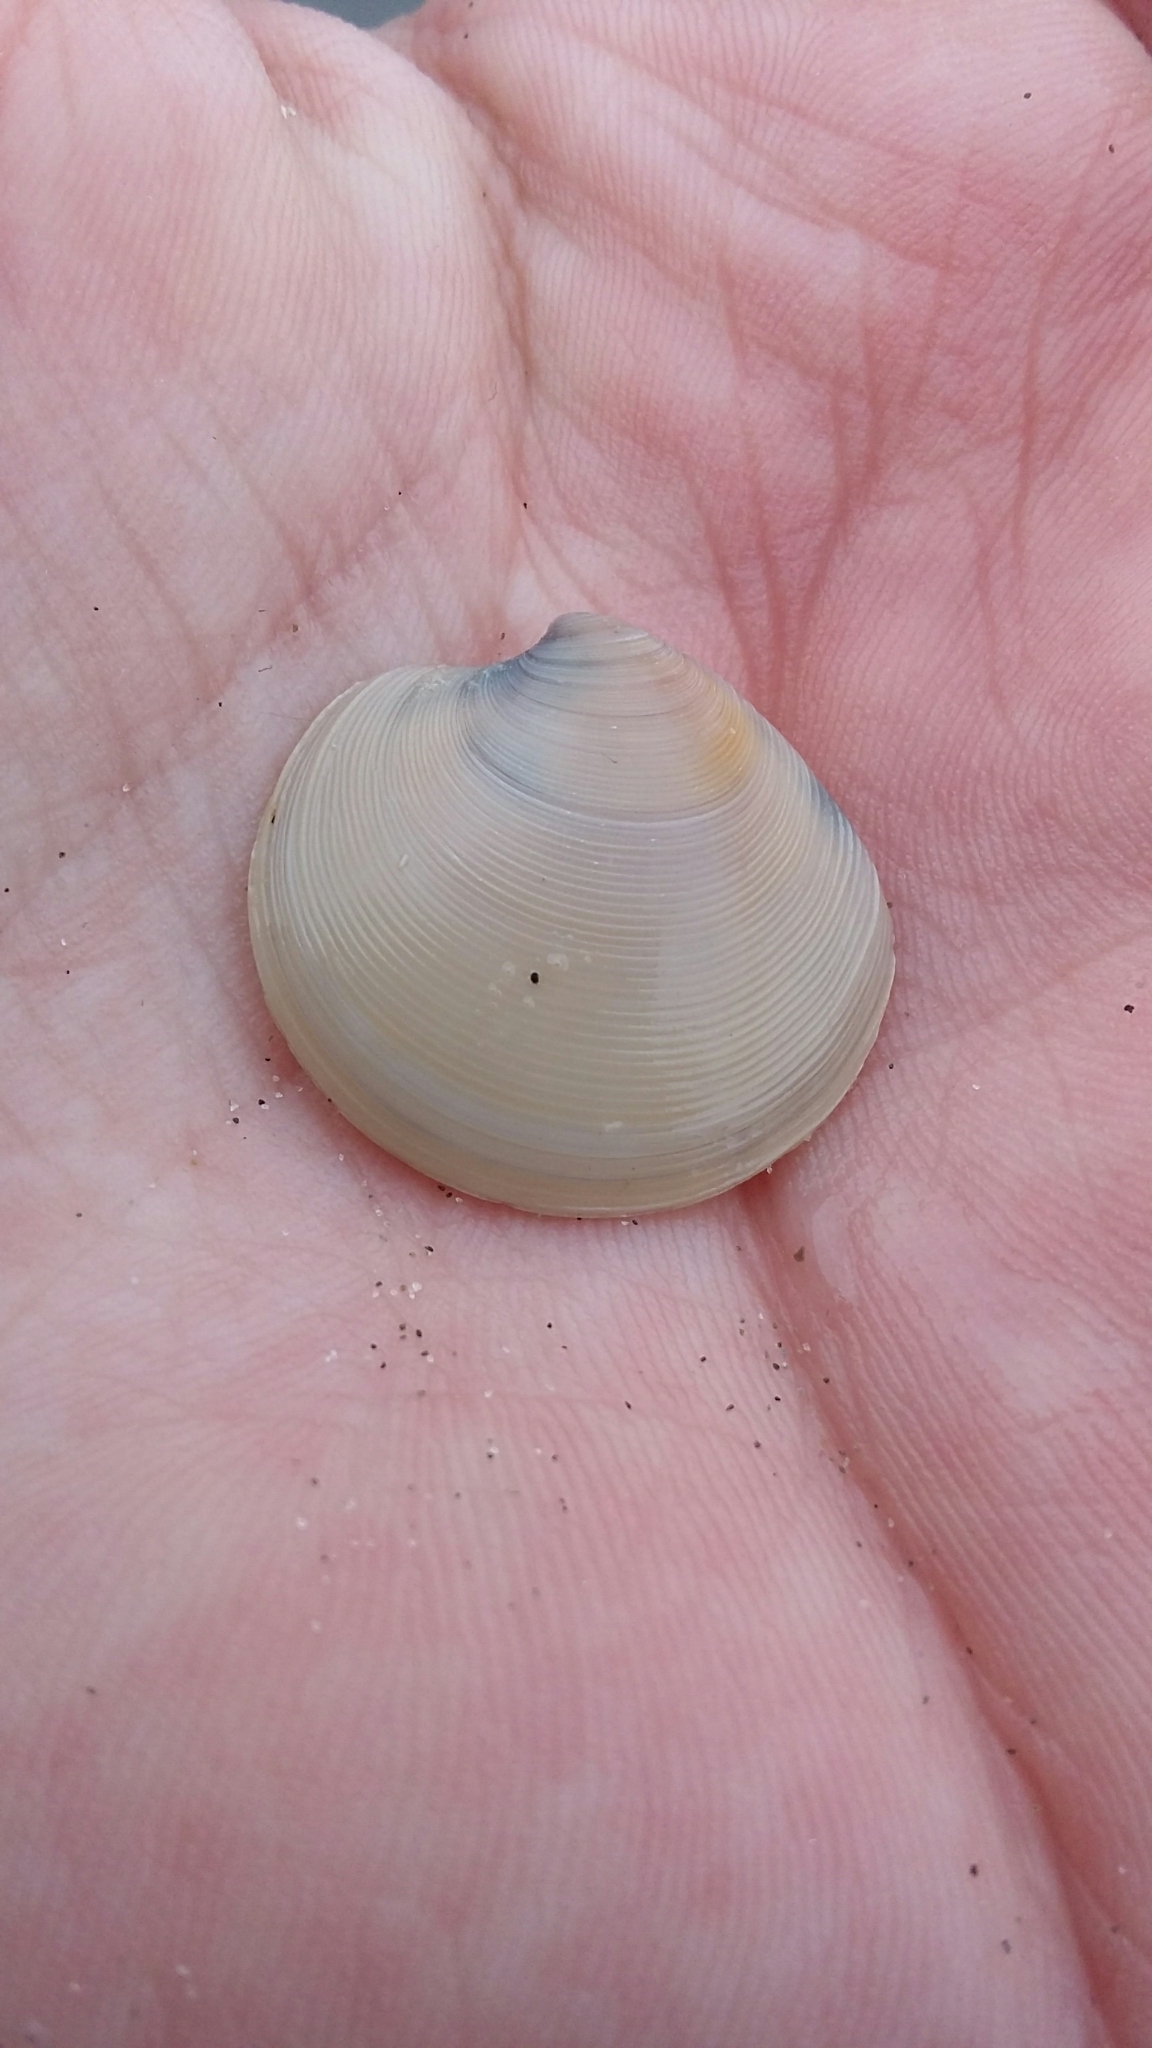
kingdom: Animalia
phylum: Mollusca
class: Bivalvia
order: Venerida
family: Veneridae
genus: Dosinia
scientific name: Dosinia subrosea
